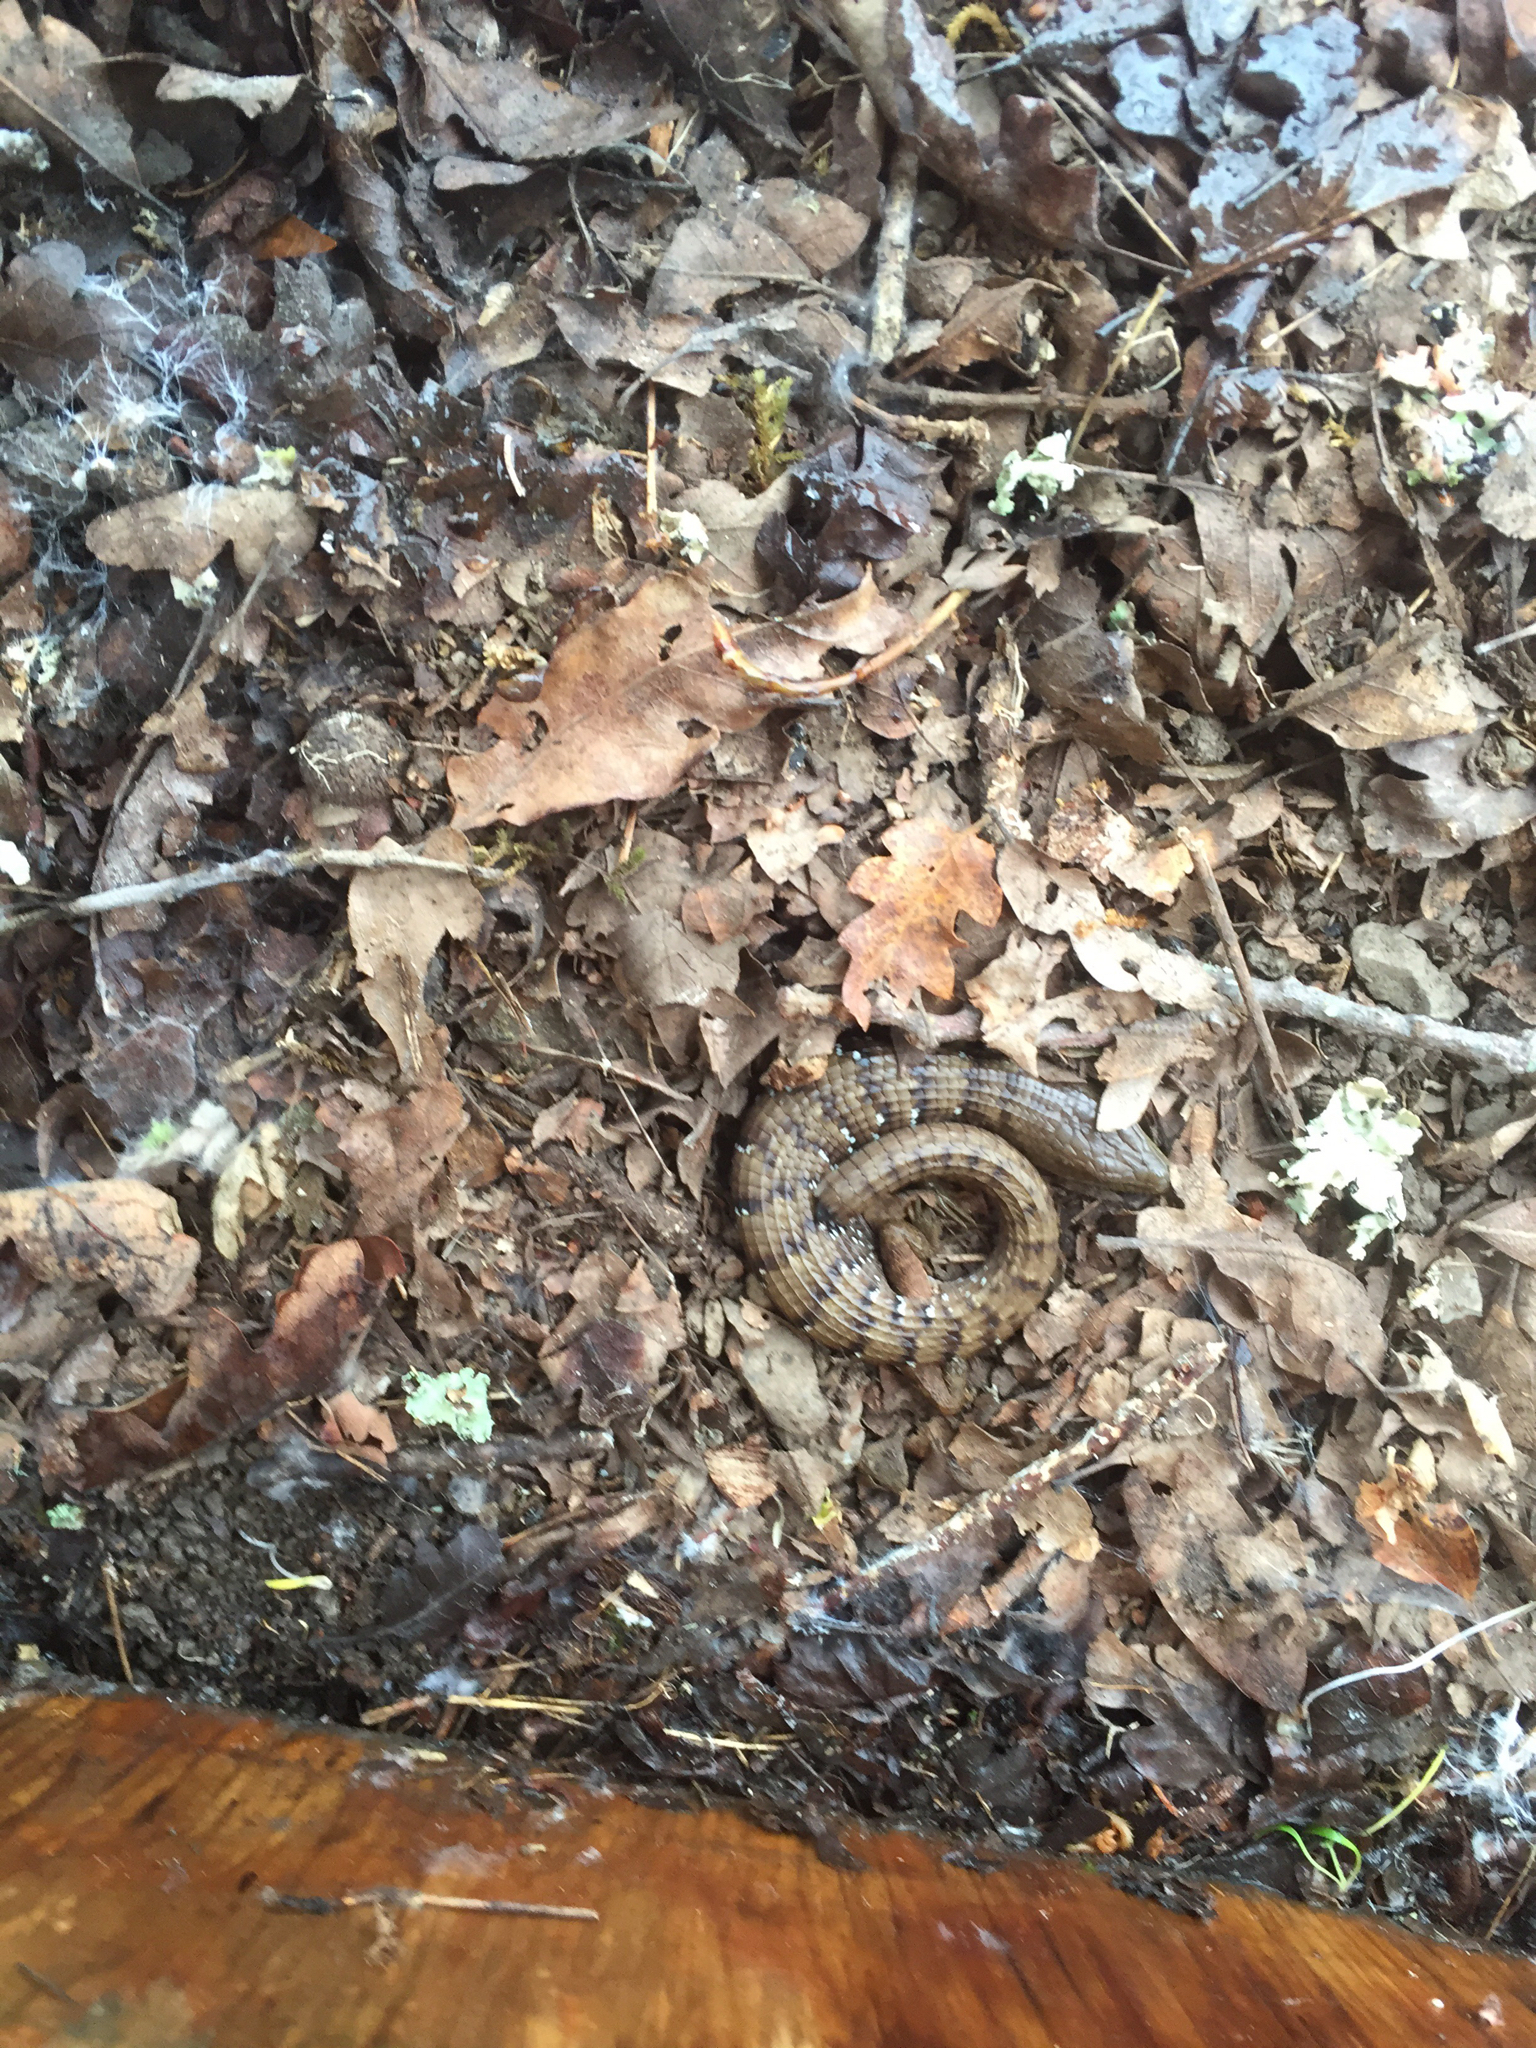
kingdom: Animalia
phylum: Chordata
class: Squamata
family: Anguidae
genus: Elgaria
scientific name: Elgaria multicarinata
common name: Southern alligator lizard
